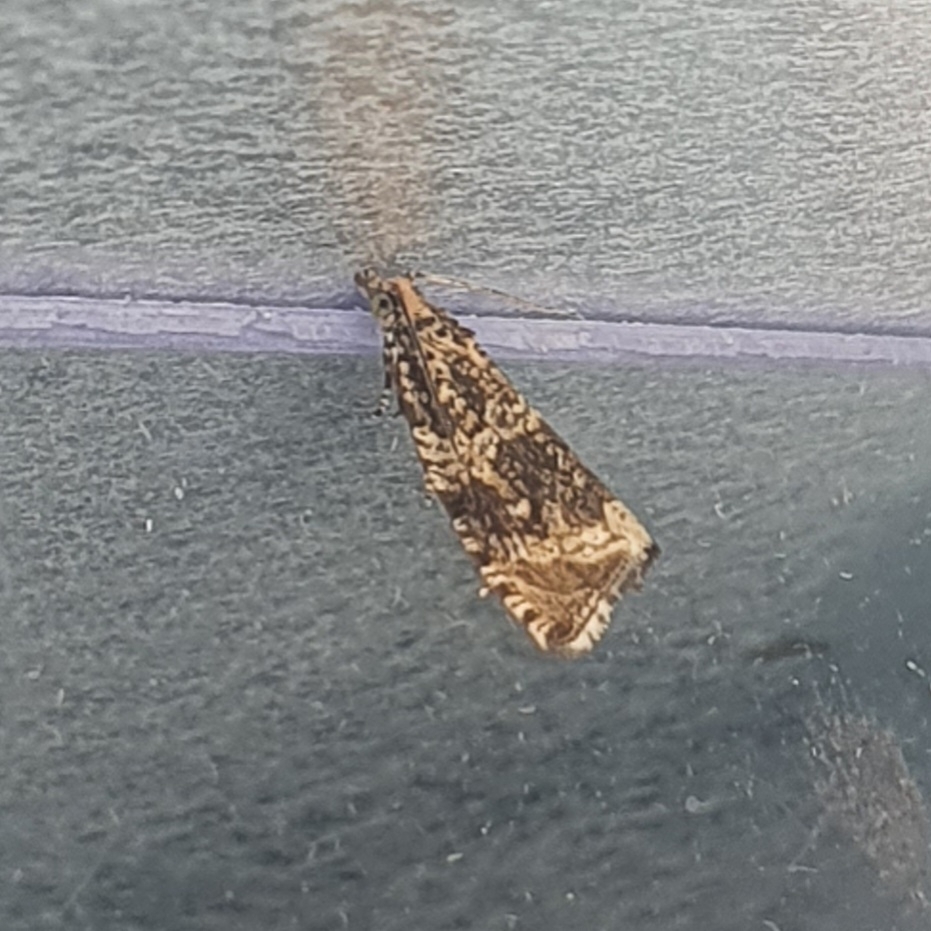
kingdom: Animalia
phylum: Arthropoda
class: Insecta
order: Lepidoptera
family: Tortricidae
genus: Syricoris
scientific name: Syricoris lacunana
